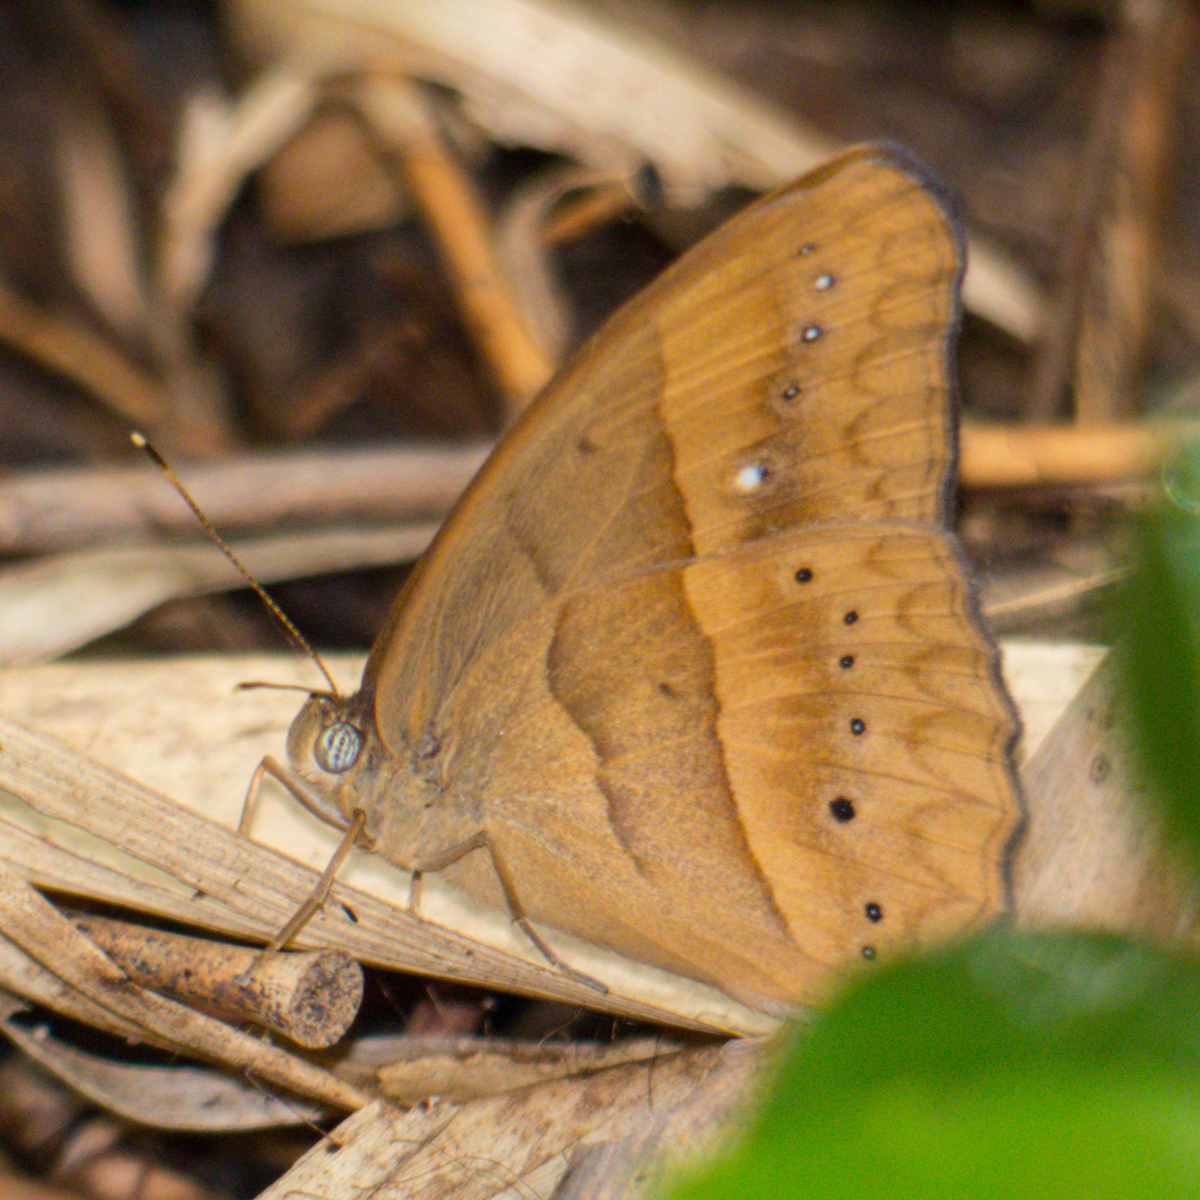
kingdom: Animalia
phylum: Arthropoda
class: Insecta
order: Lepidoptera
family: Nymphalidae
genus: Mycalesis
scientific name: Mycalesis mnasicles
